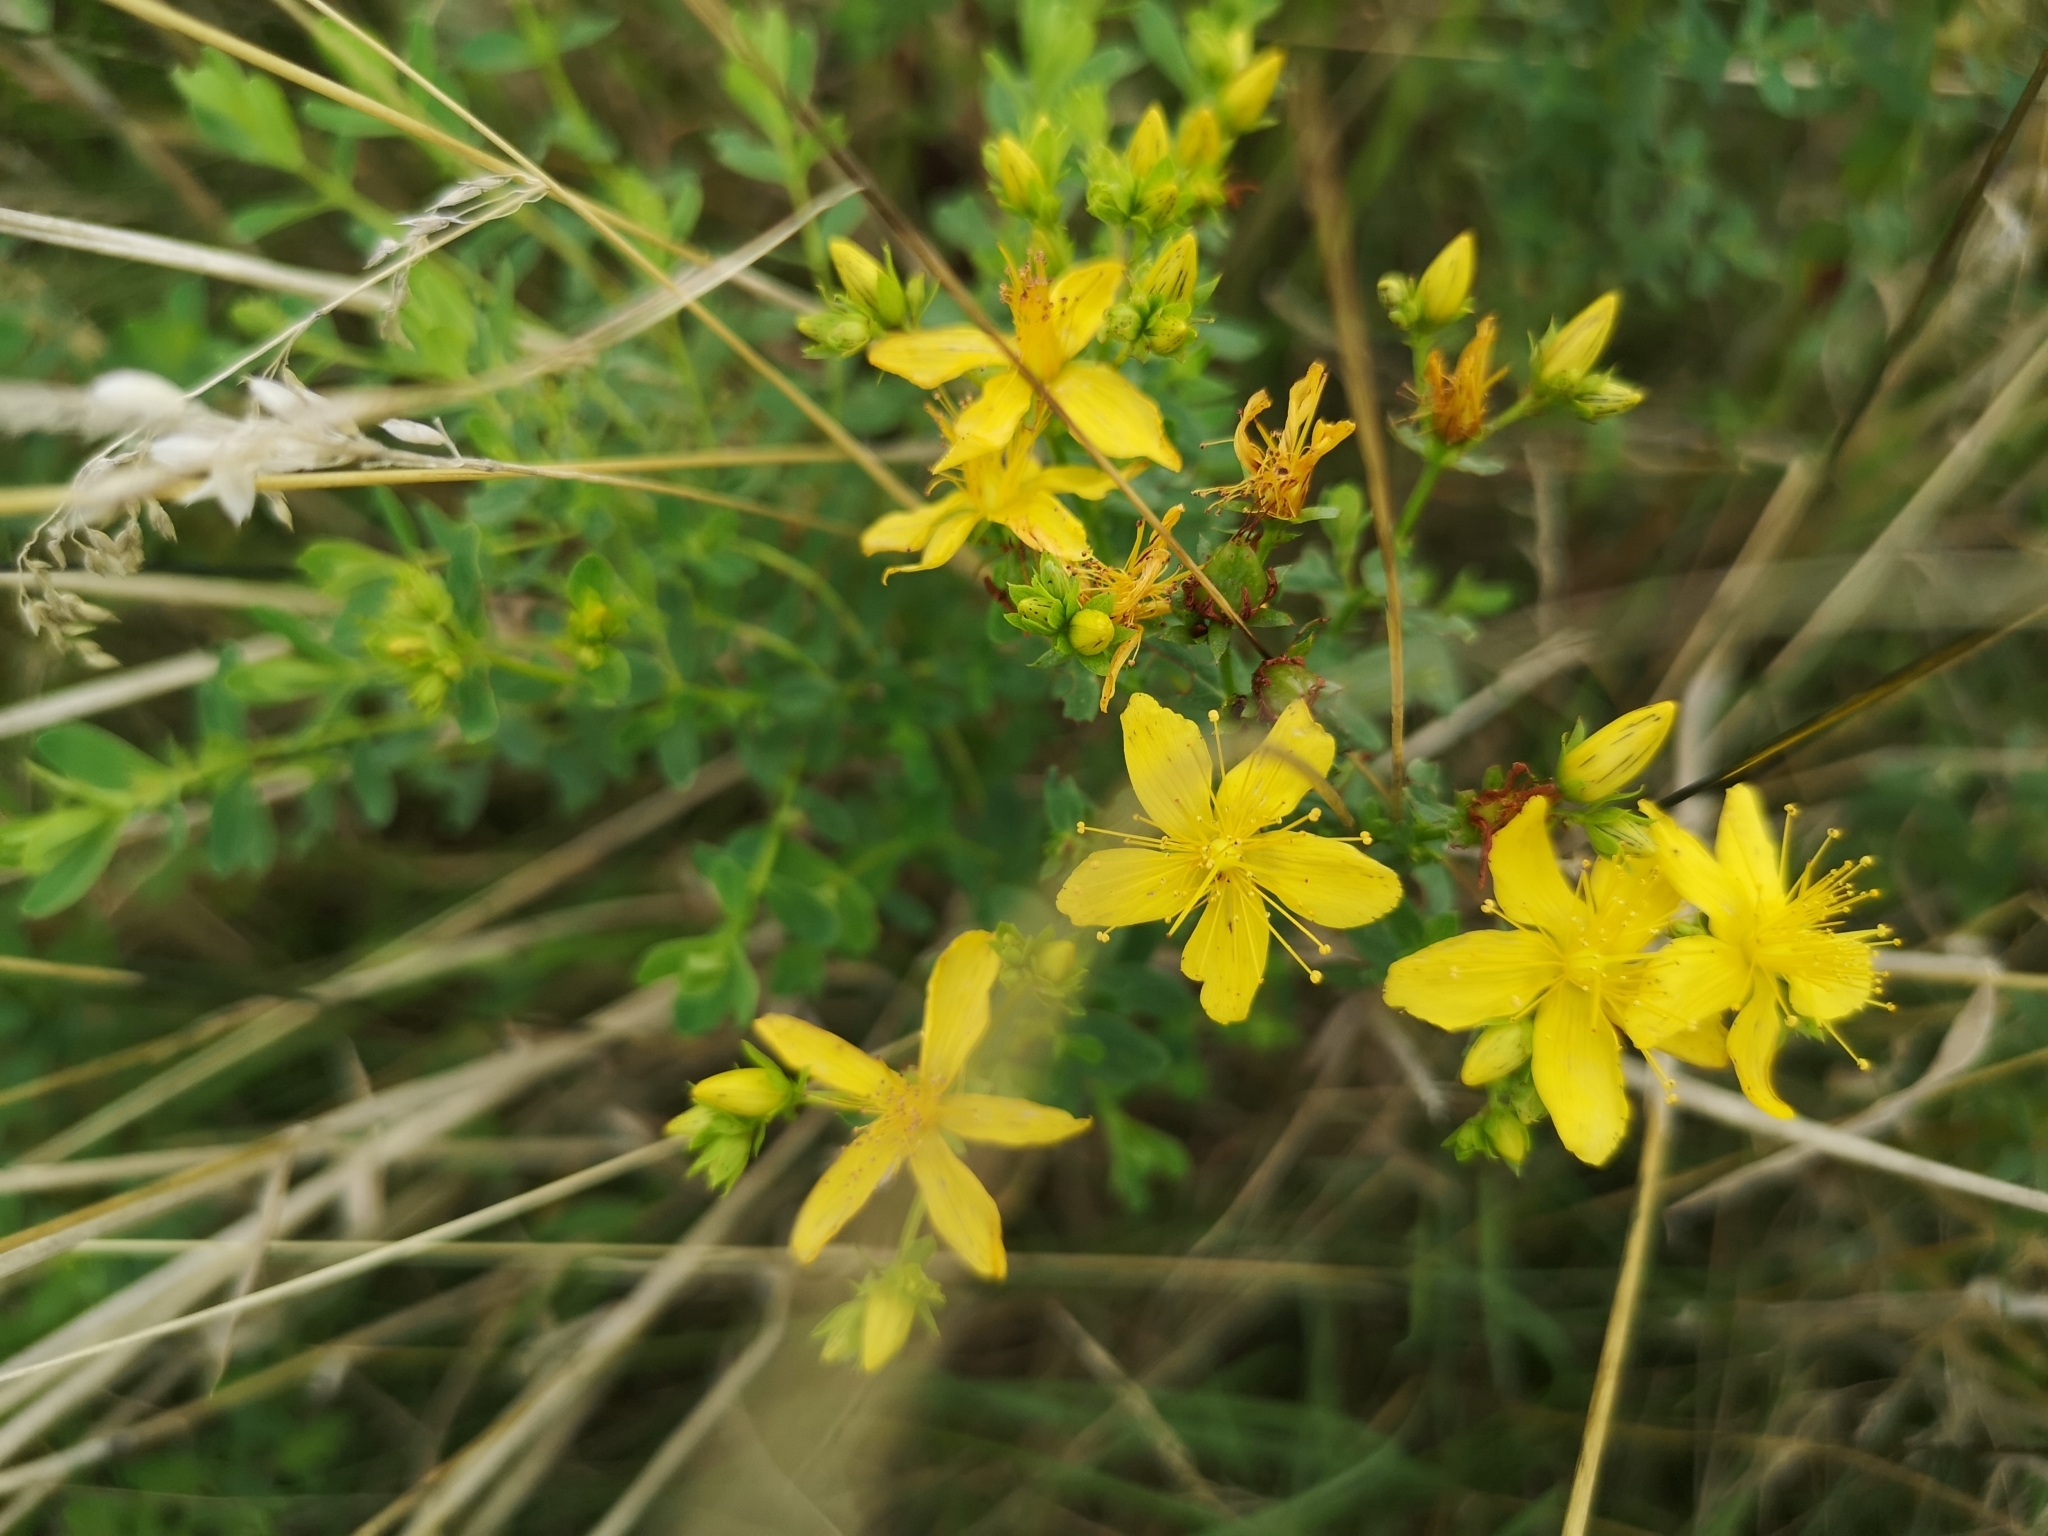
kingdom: Plantae
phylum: Tracheophyta
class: Magnoliopsida
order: Malpighiales
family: Hypericaceae
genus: Hypericum
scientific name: Hypericum perforatum
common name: Common st. johnswort
